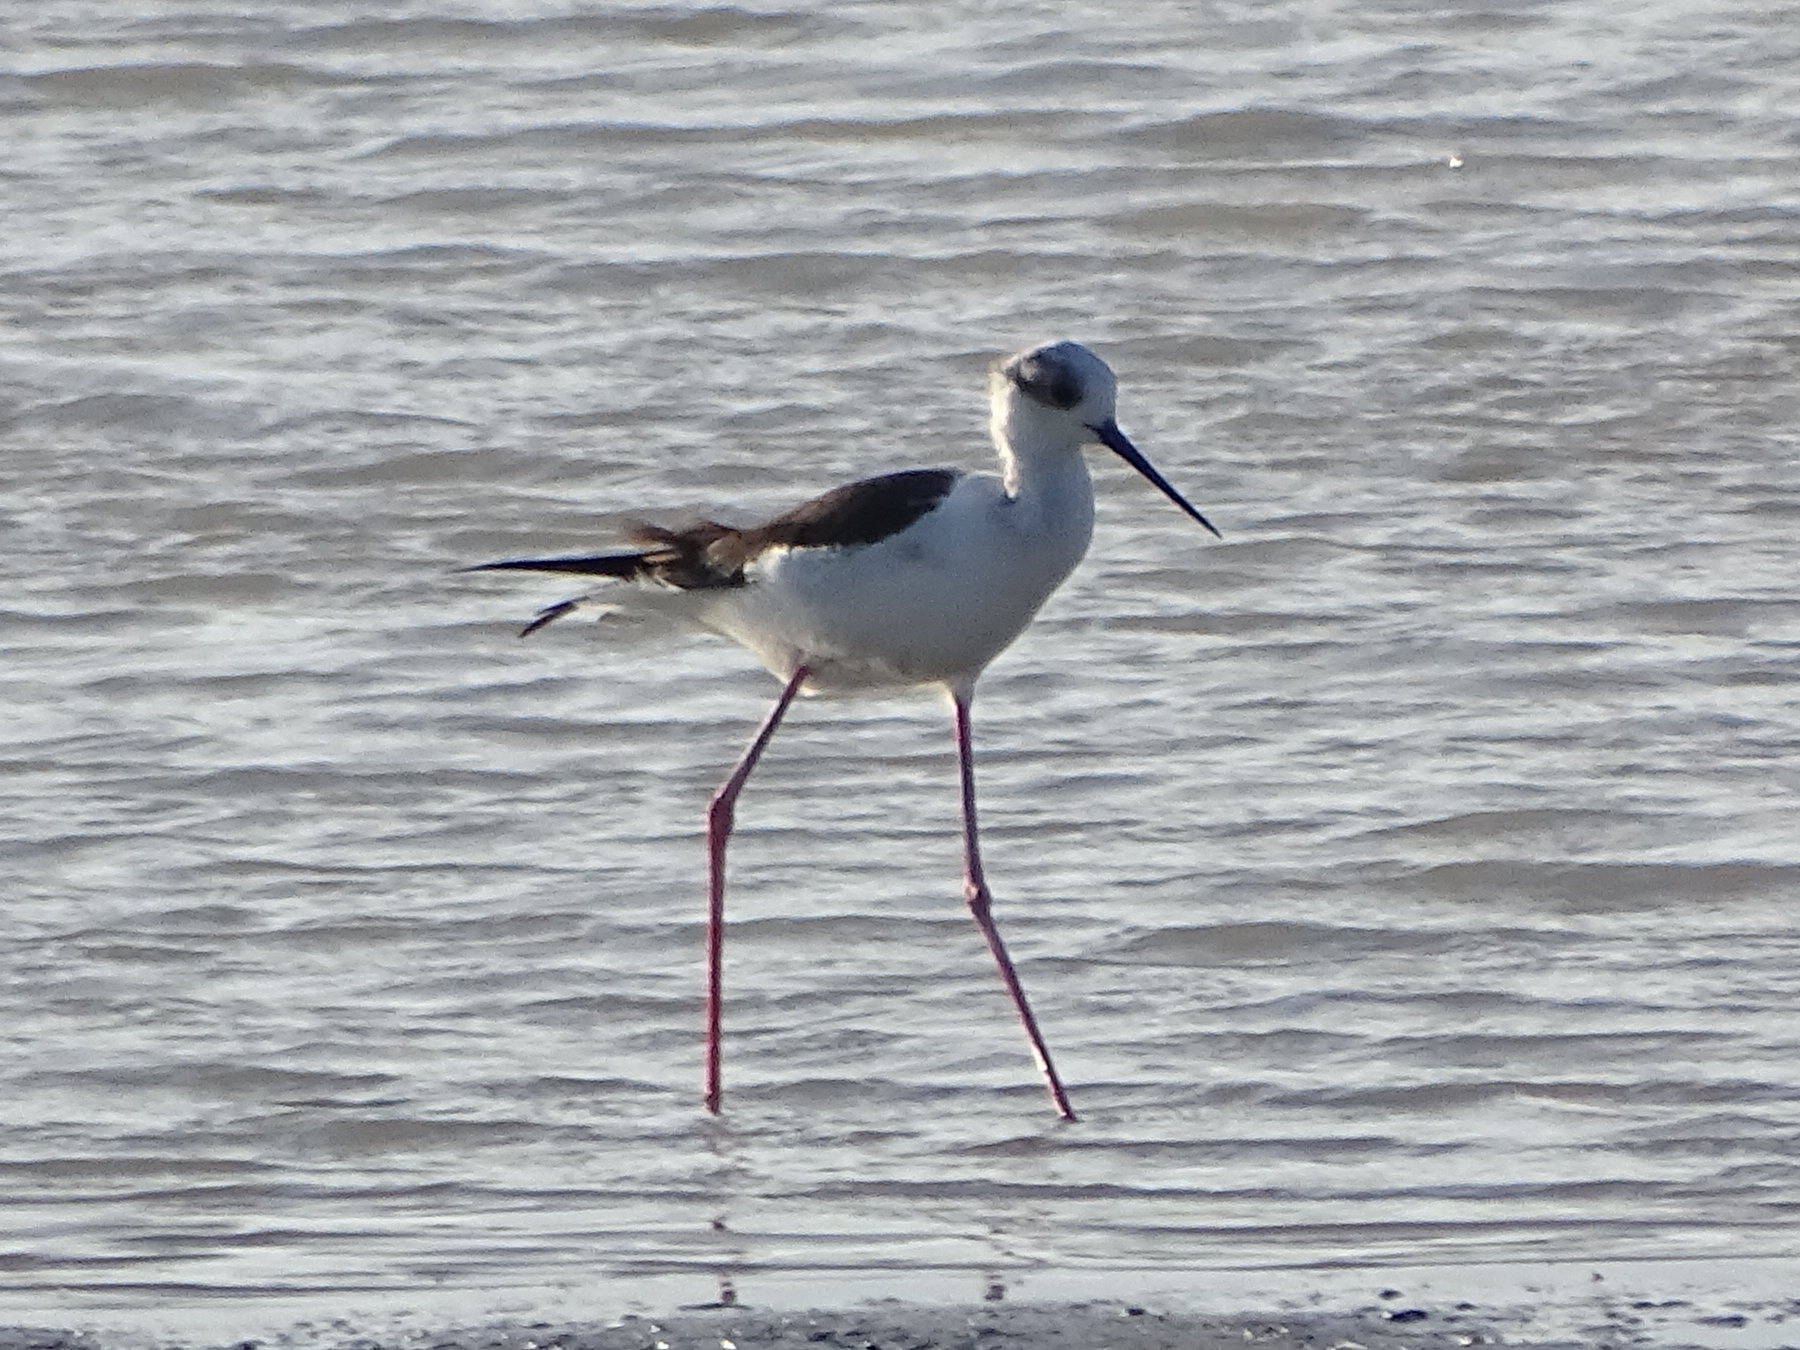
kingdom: Animalia
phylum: Chordata
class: Aves
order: Charadriiformes
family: Recurvirostridae
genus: Himantopus
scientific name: Himantopus himantopus
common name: Black-winged stilt
